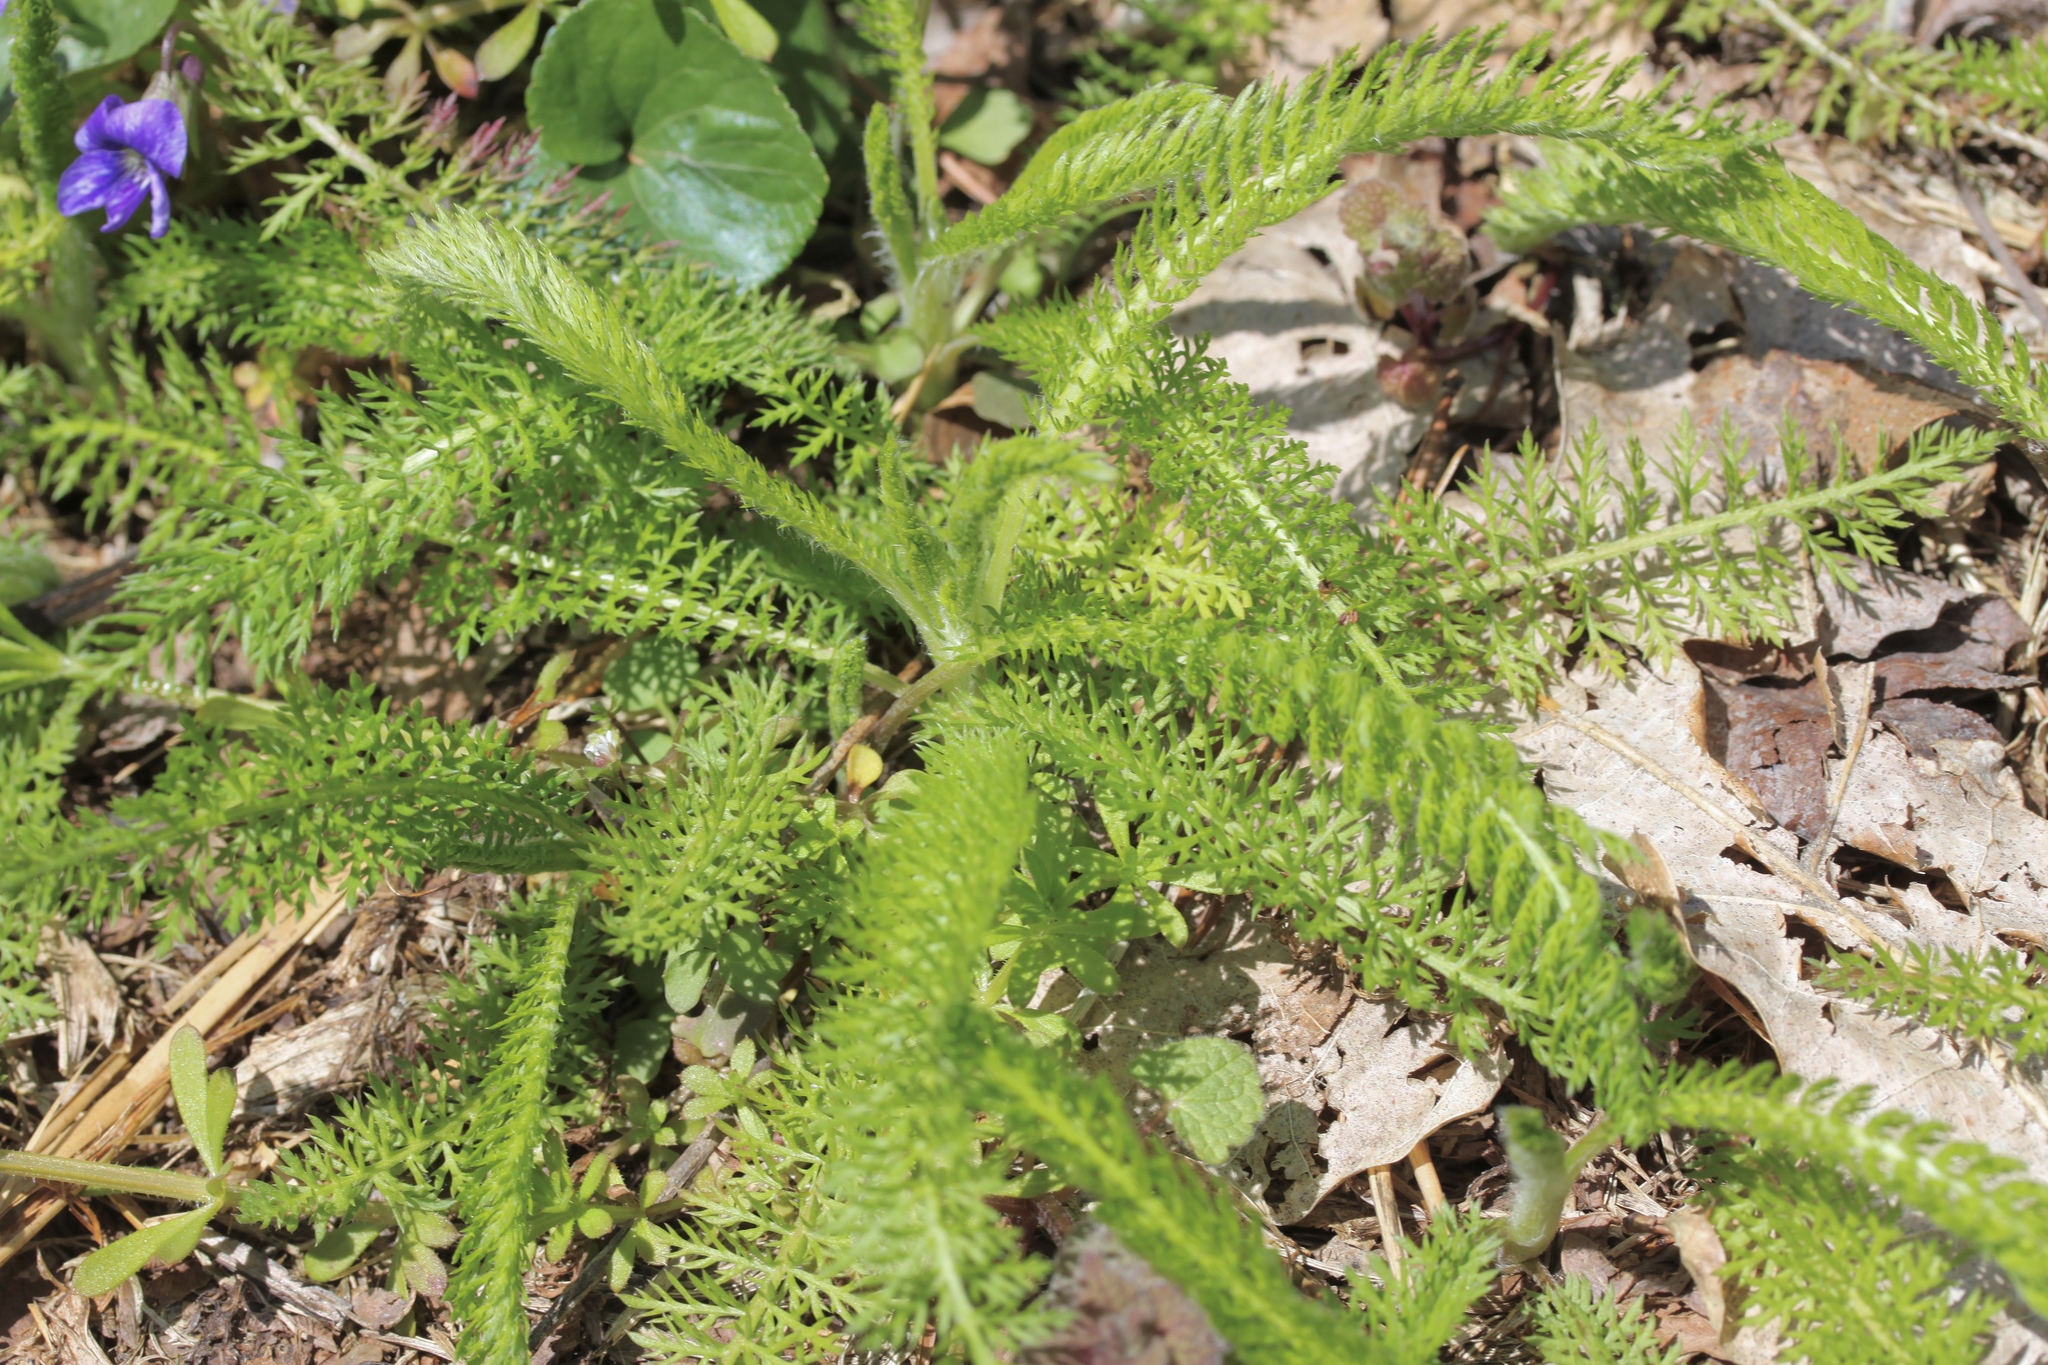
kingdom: Plantae
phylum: Tracheophyta
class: Magnoliopsida
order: Asterales
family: Asteraceae
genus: Achillea
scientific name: Achillea millefolium
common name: Yarrow
